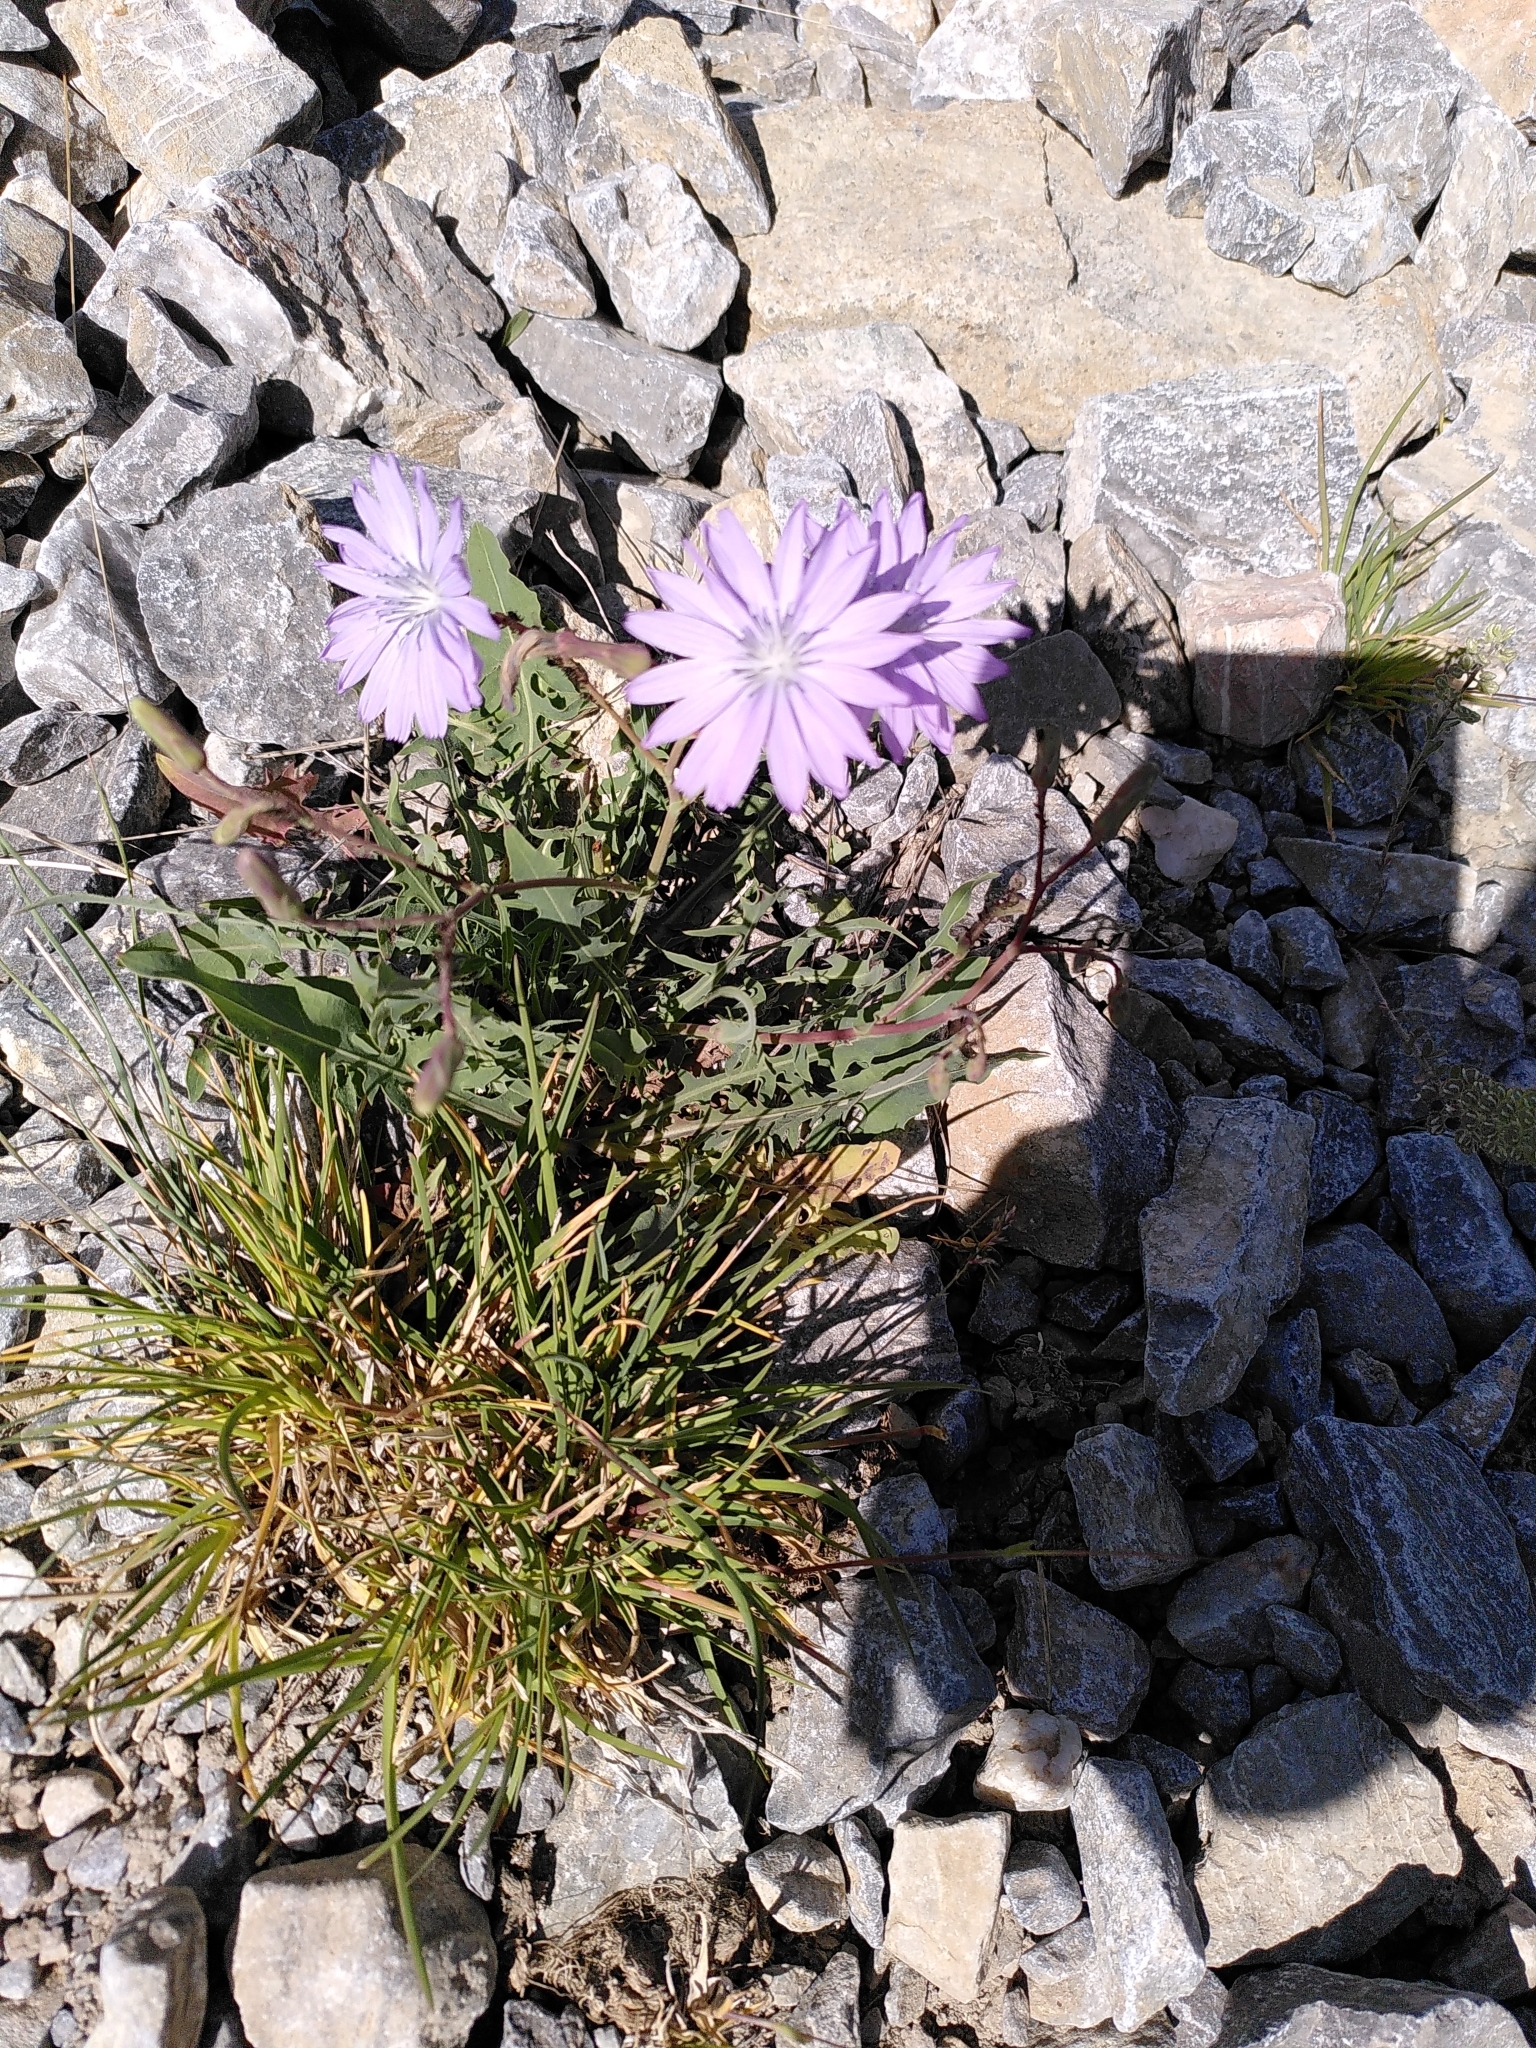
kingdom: Plantae
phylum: Tracheophyta
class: Magnoliopsida
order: Asterales
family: Asteraceae
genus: Lactuca
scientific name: Lactuca perennis
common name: Mountain lettuce
